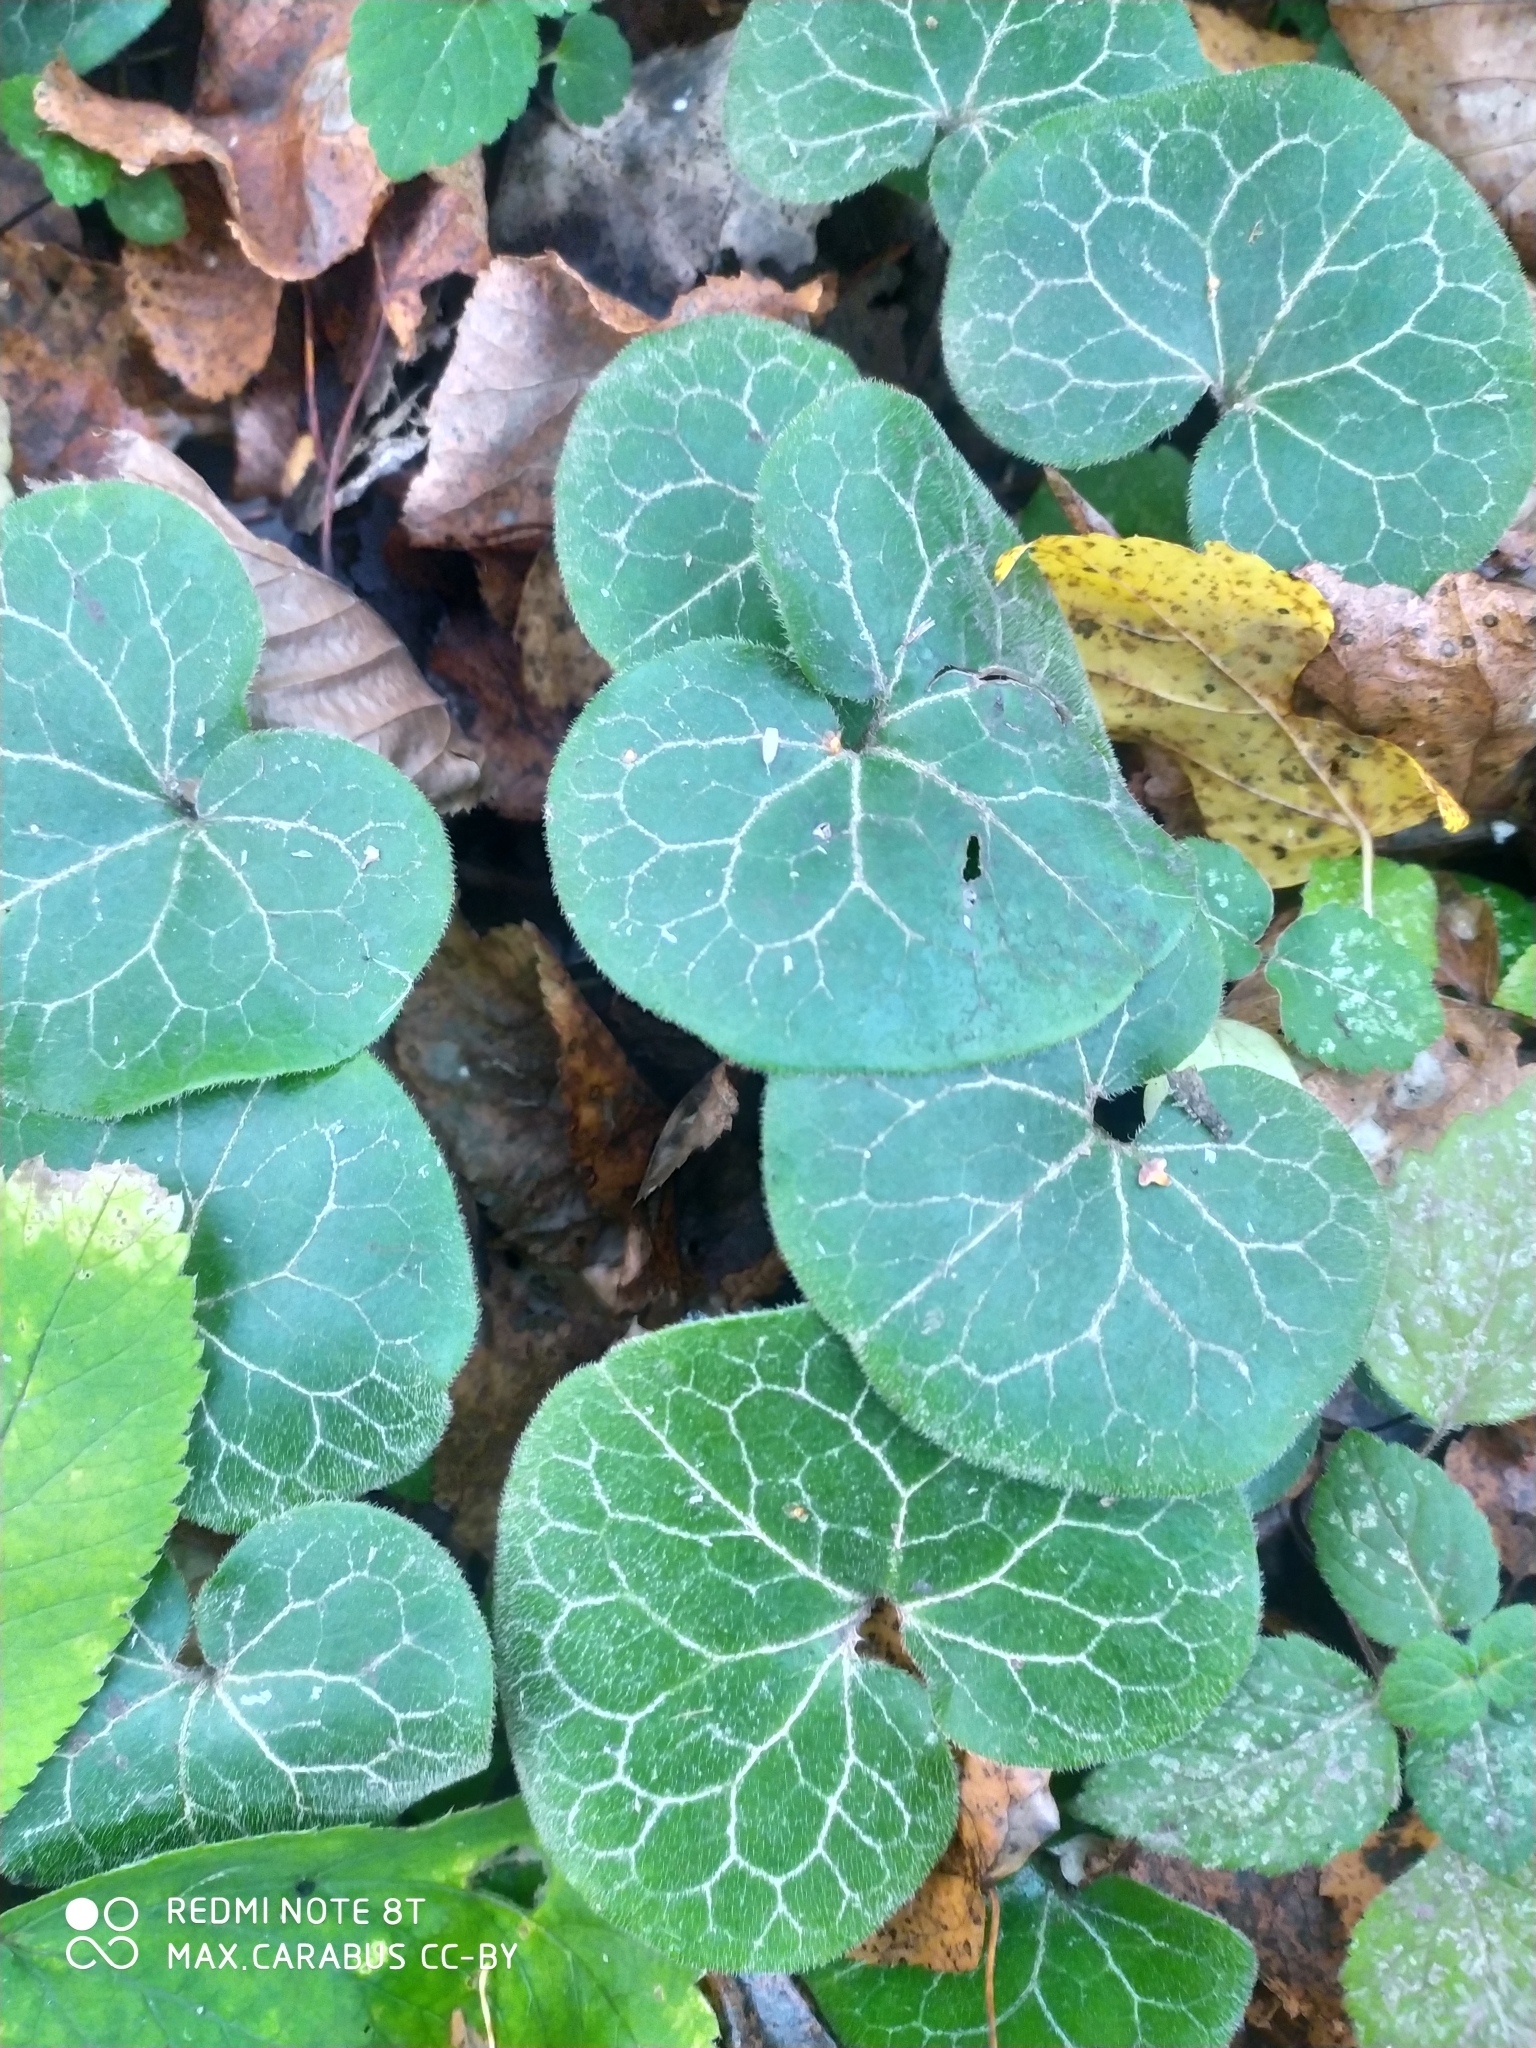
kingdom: Plantae
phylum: Tracheophyta
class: Magnoliopsida
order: Piperales
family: Aristolochiaceae
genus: Asarum
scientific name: Asarum europaeum
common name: Asarabacca
